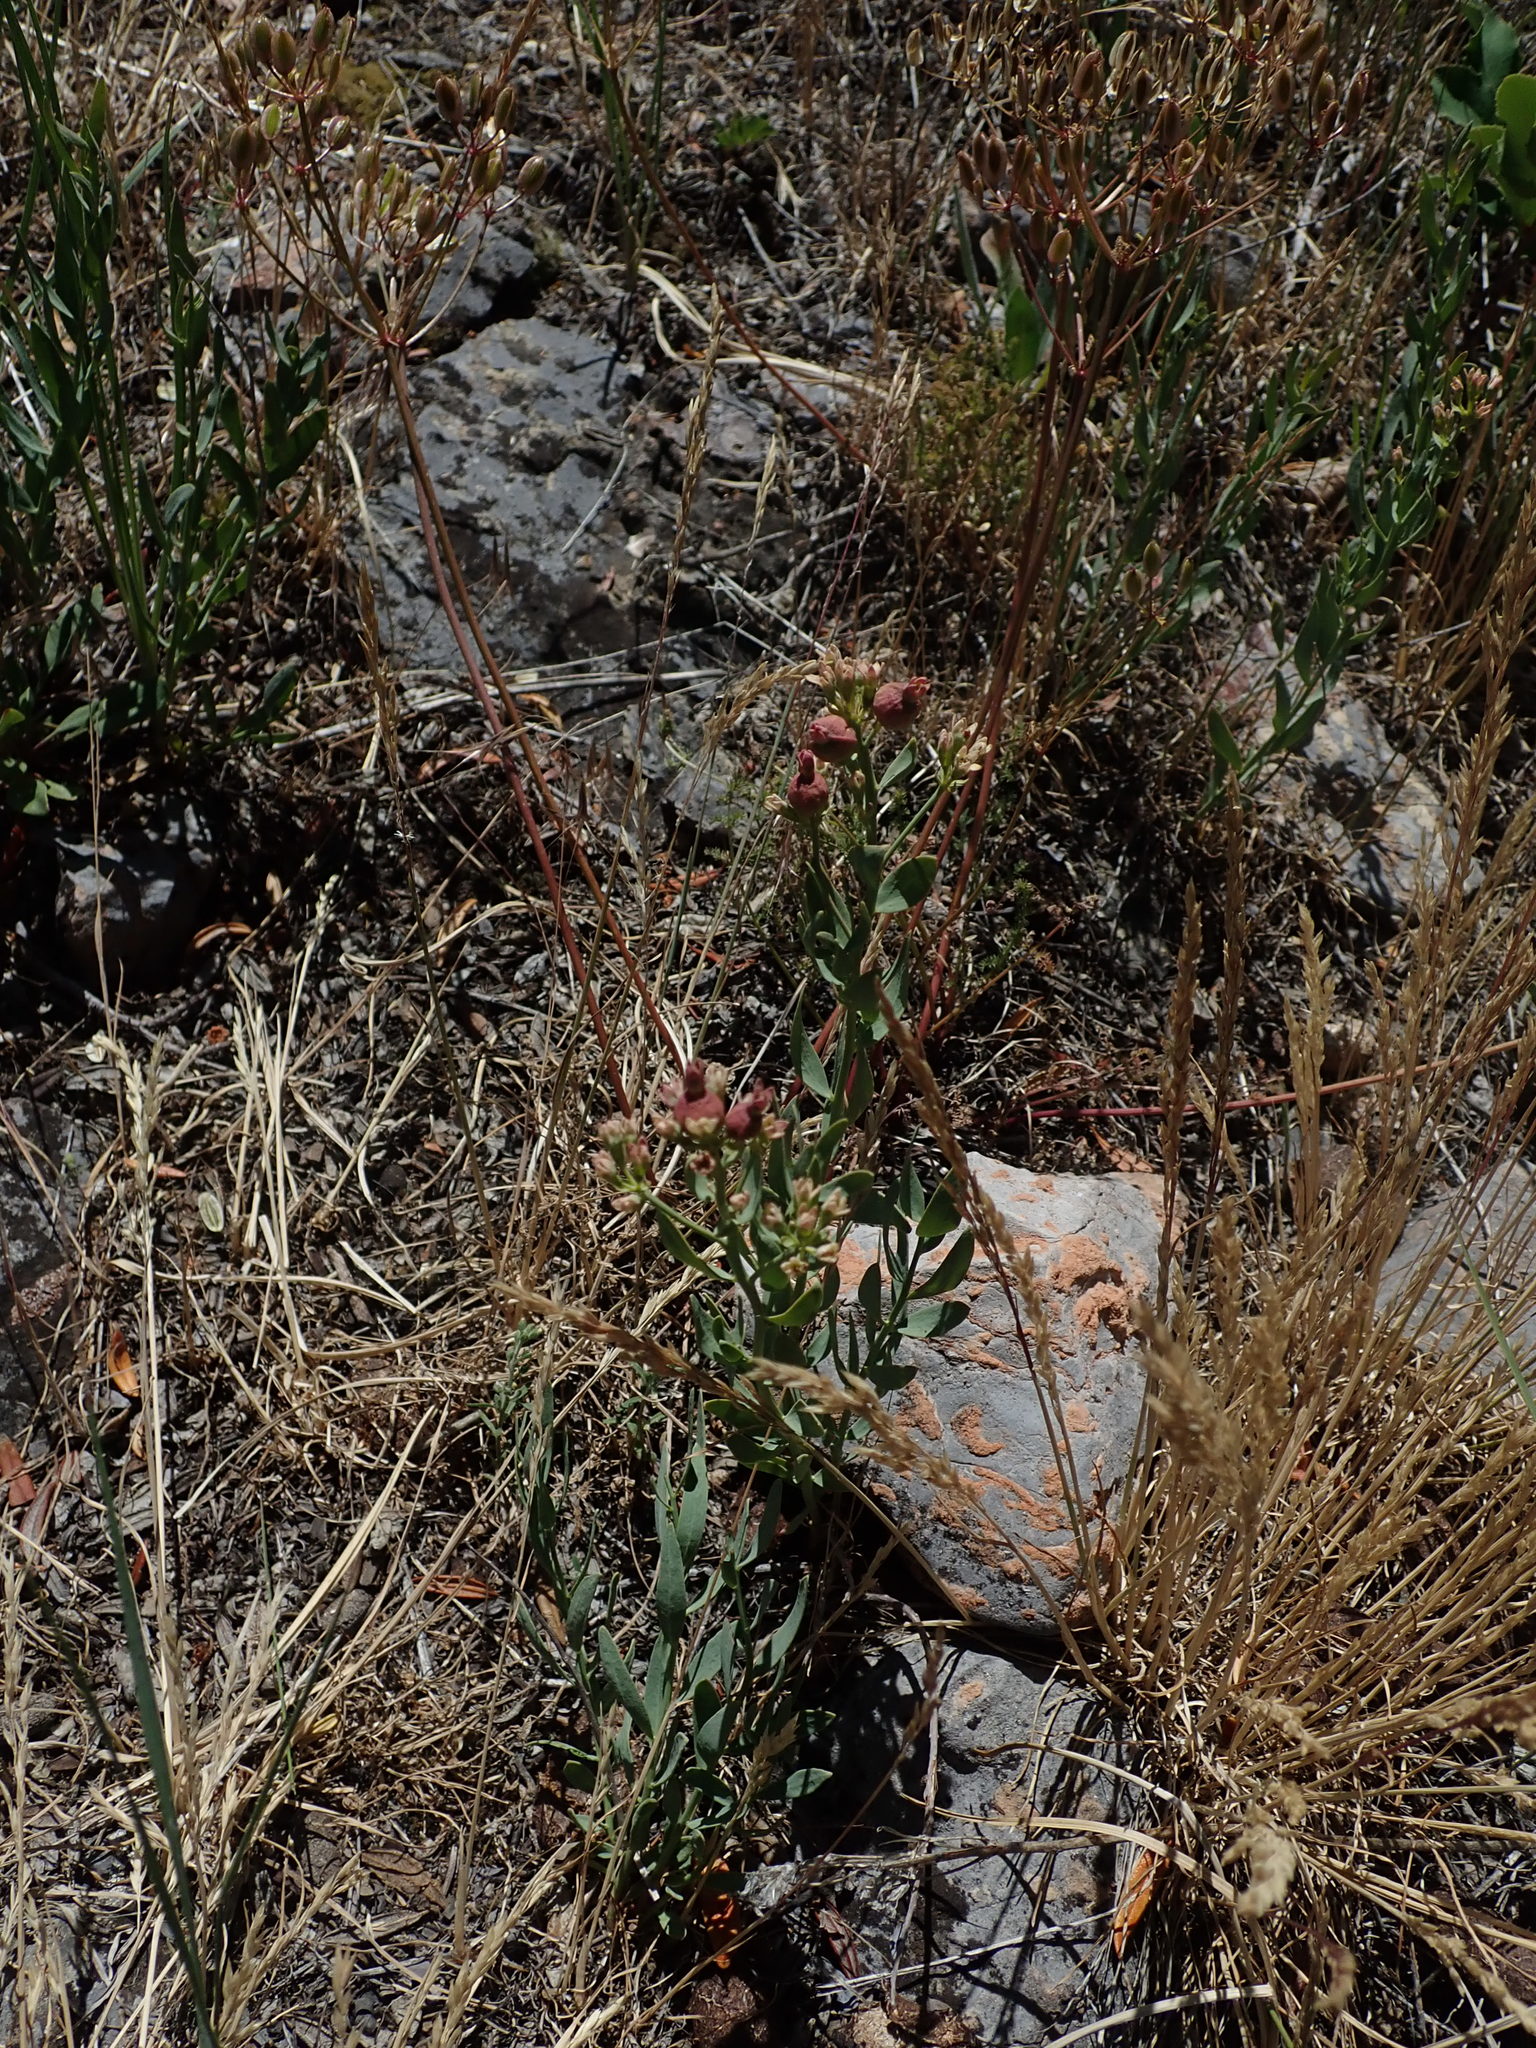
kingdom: Plantae
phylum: Tracheophyta
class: Magnoliopsida
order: Santalales
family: Comandraceae
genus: Comandra
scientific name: Comandra umbellata
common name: Bastard toadflax
